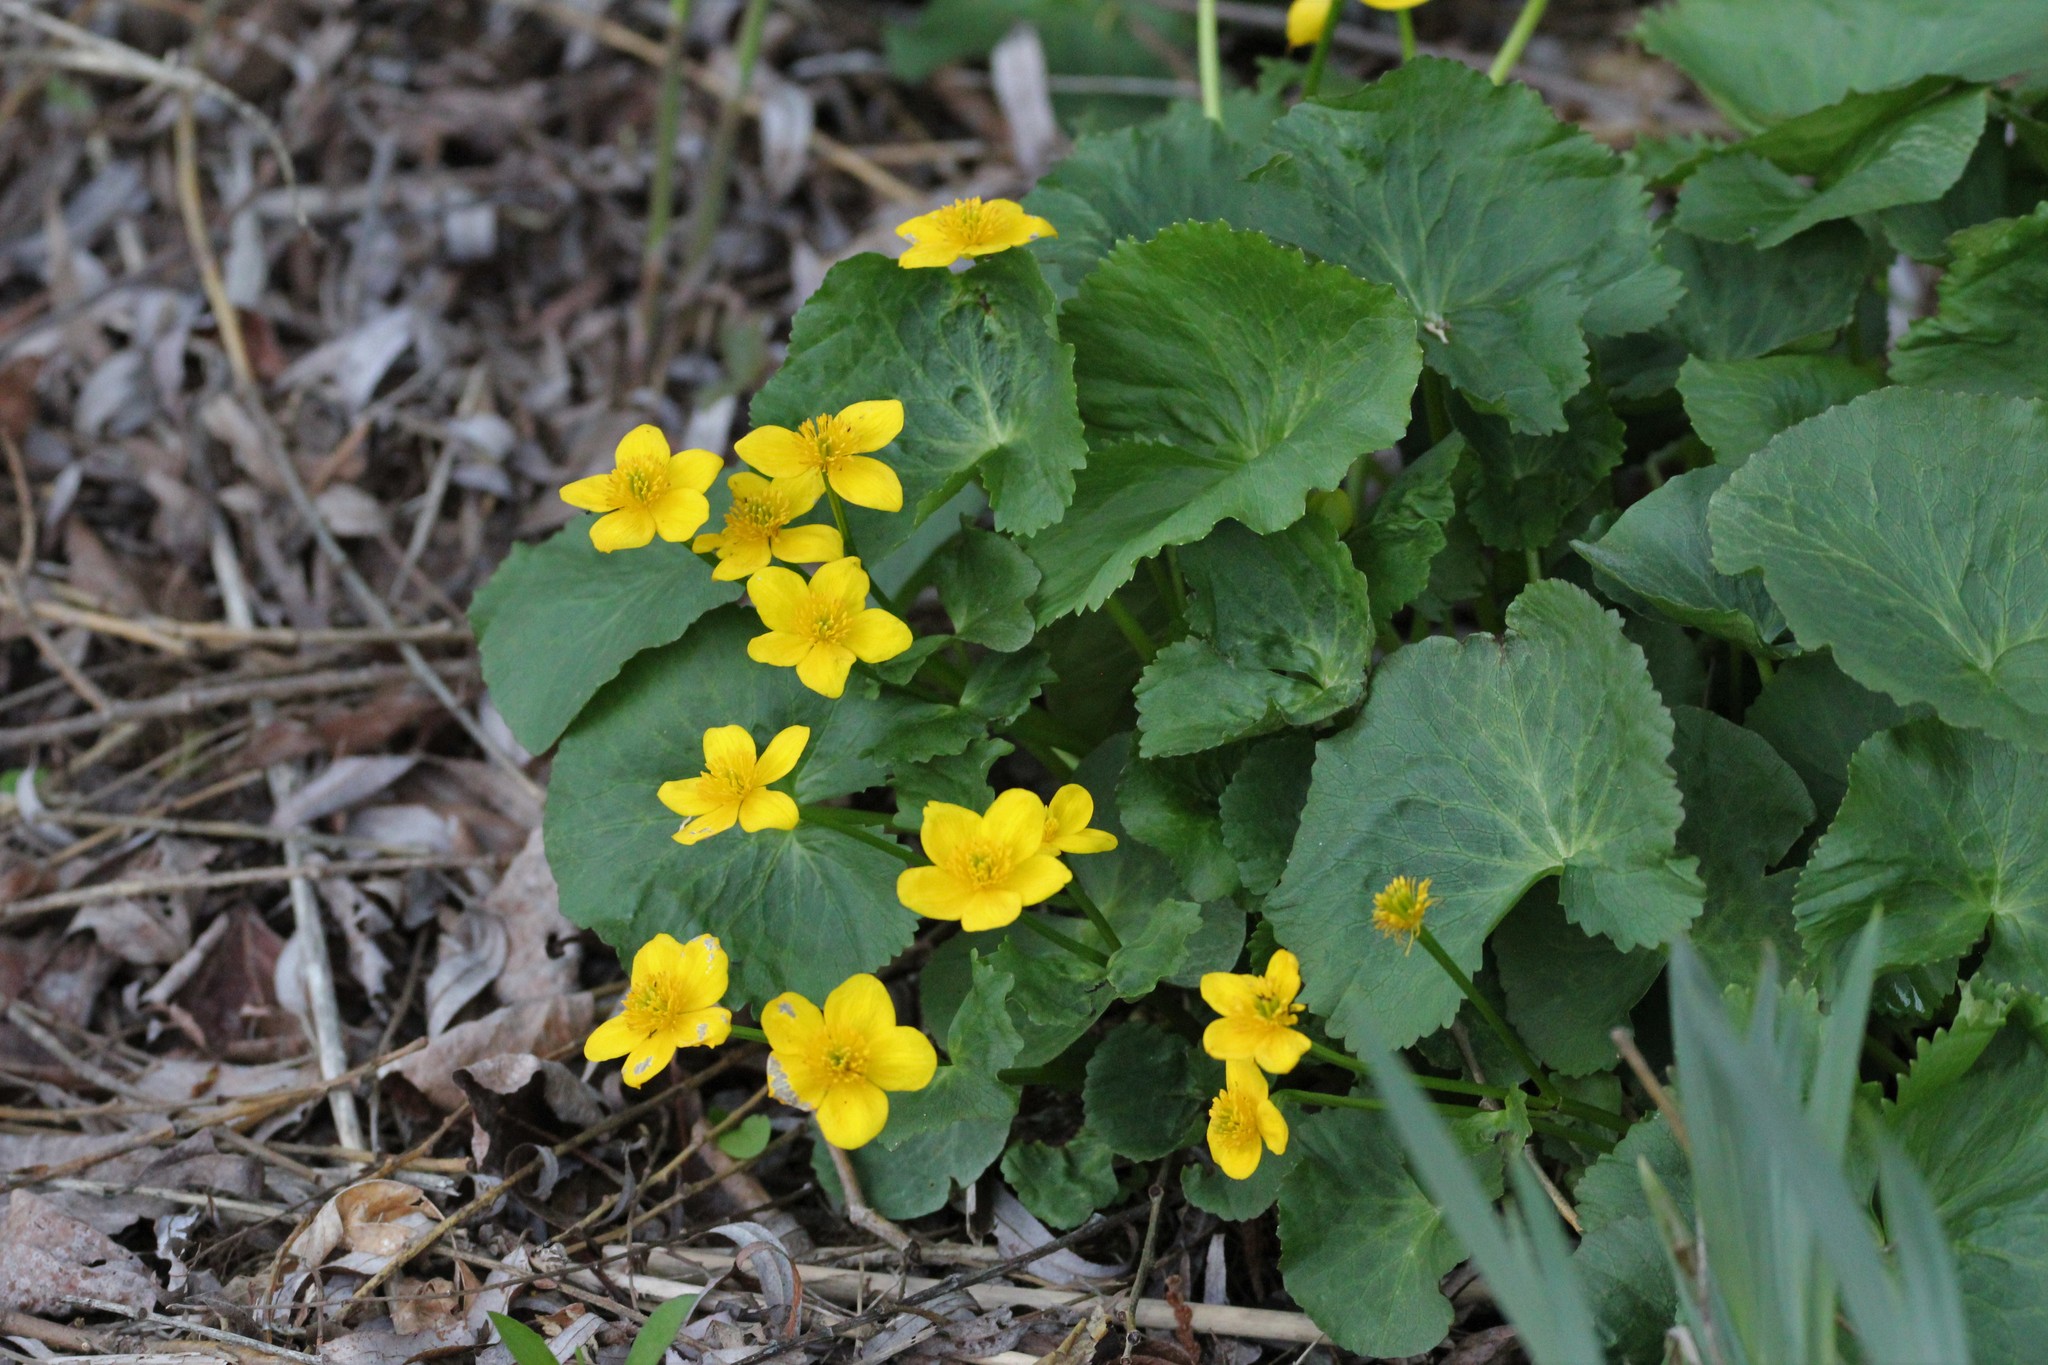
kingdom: Plantae
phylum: Tracheophyta
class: Magnoliopsida
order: Ranunculales
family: Ranunculaceae
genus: Caltha
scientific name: Caltha palustris
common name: Marsh marigold
